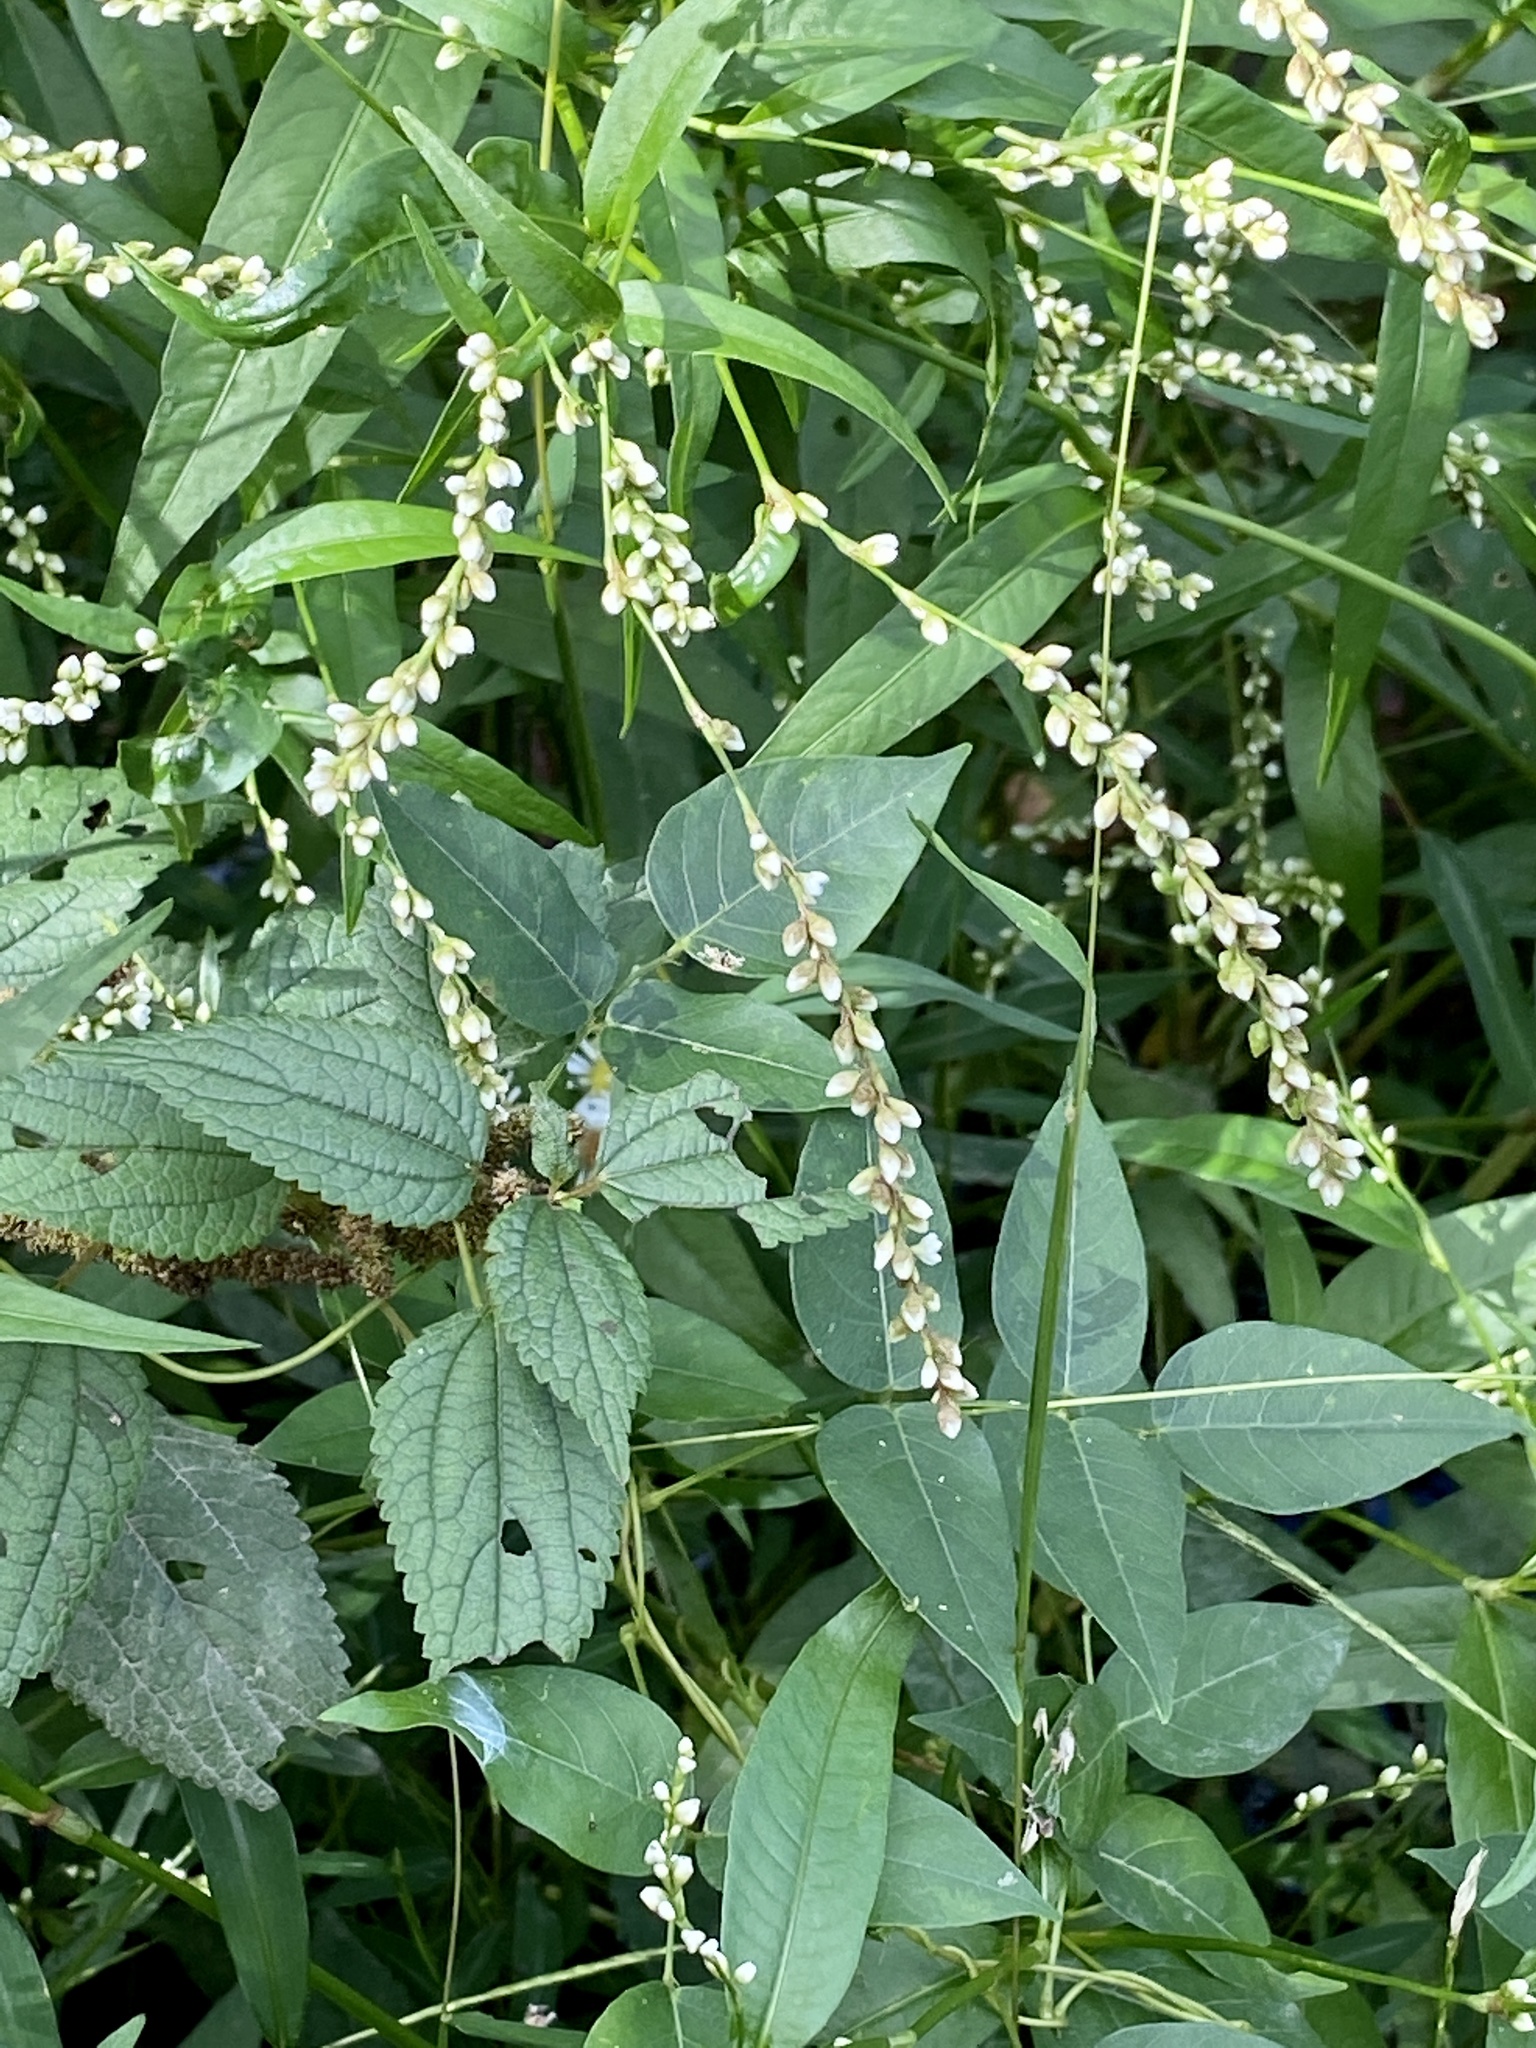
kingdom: Plantae
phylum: Tracheophyta
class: Magnoliopsida
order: Caryophyllales
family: Polygonaceae
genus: Persicaria
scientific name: Persicaria punctata
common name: Dotted smartweed
